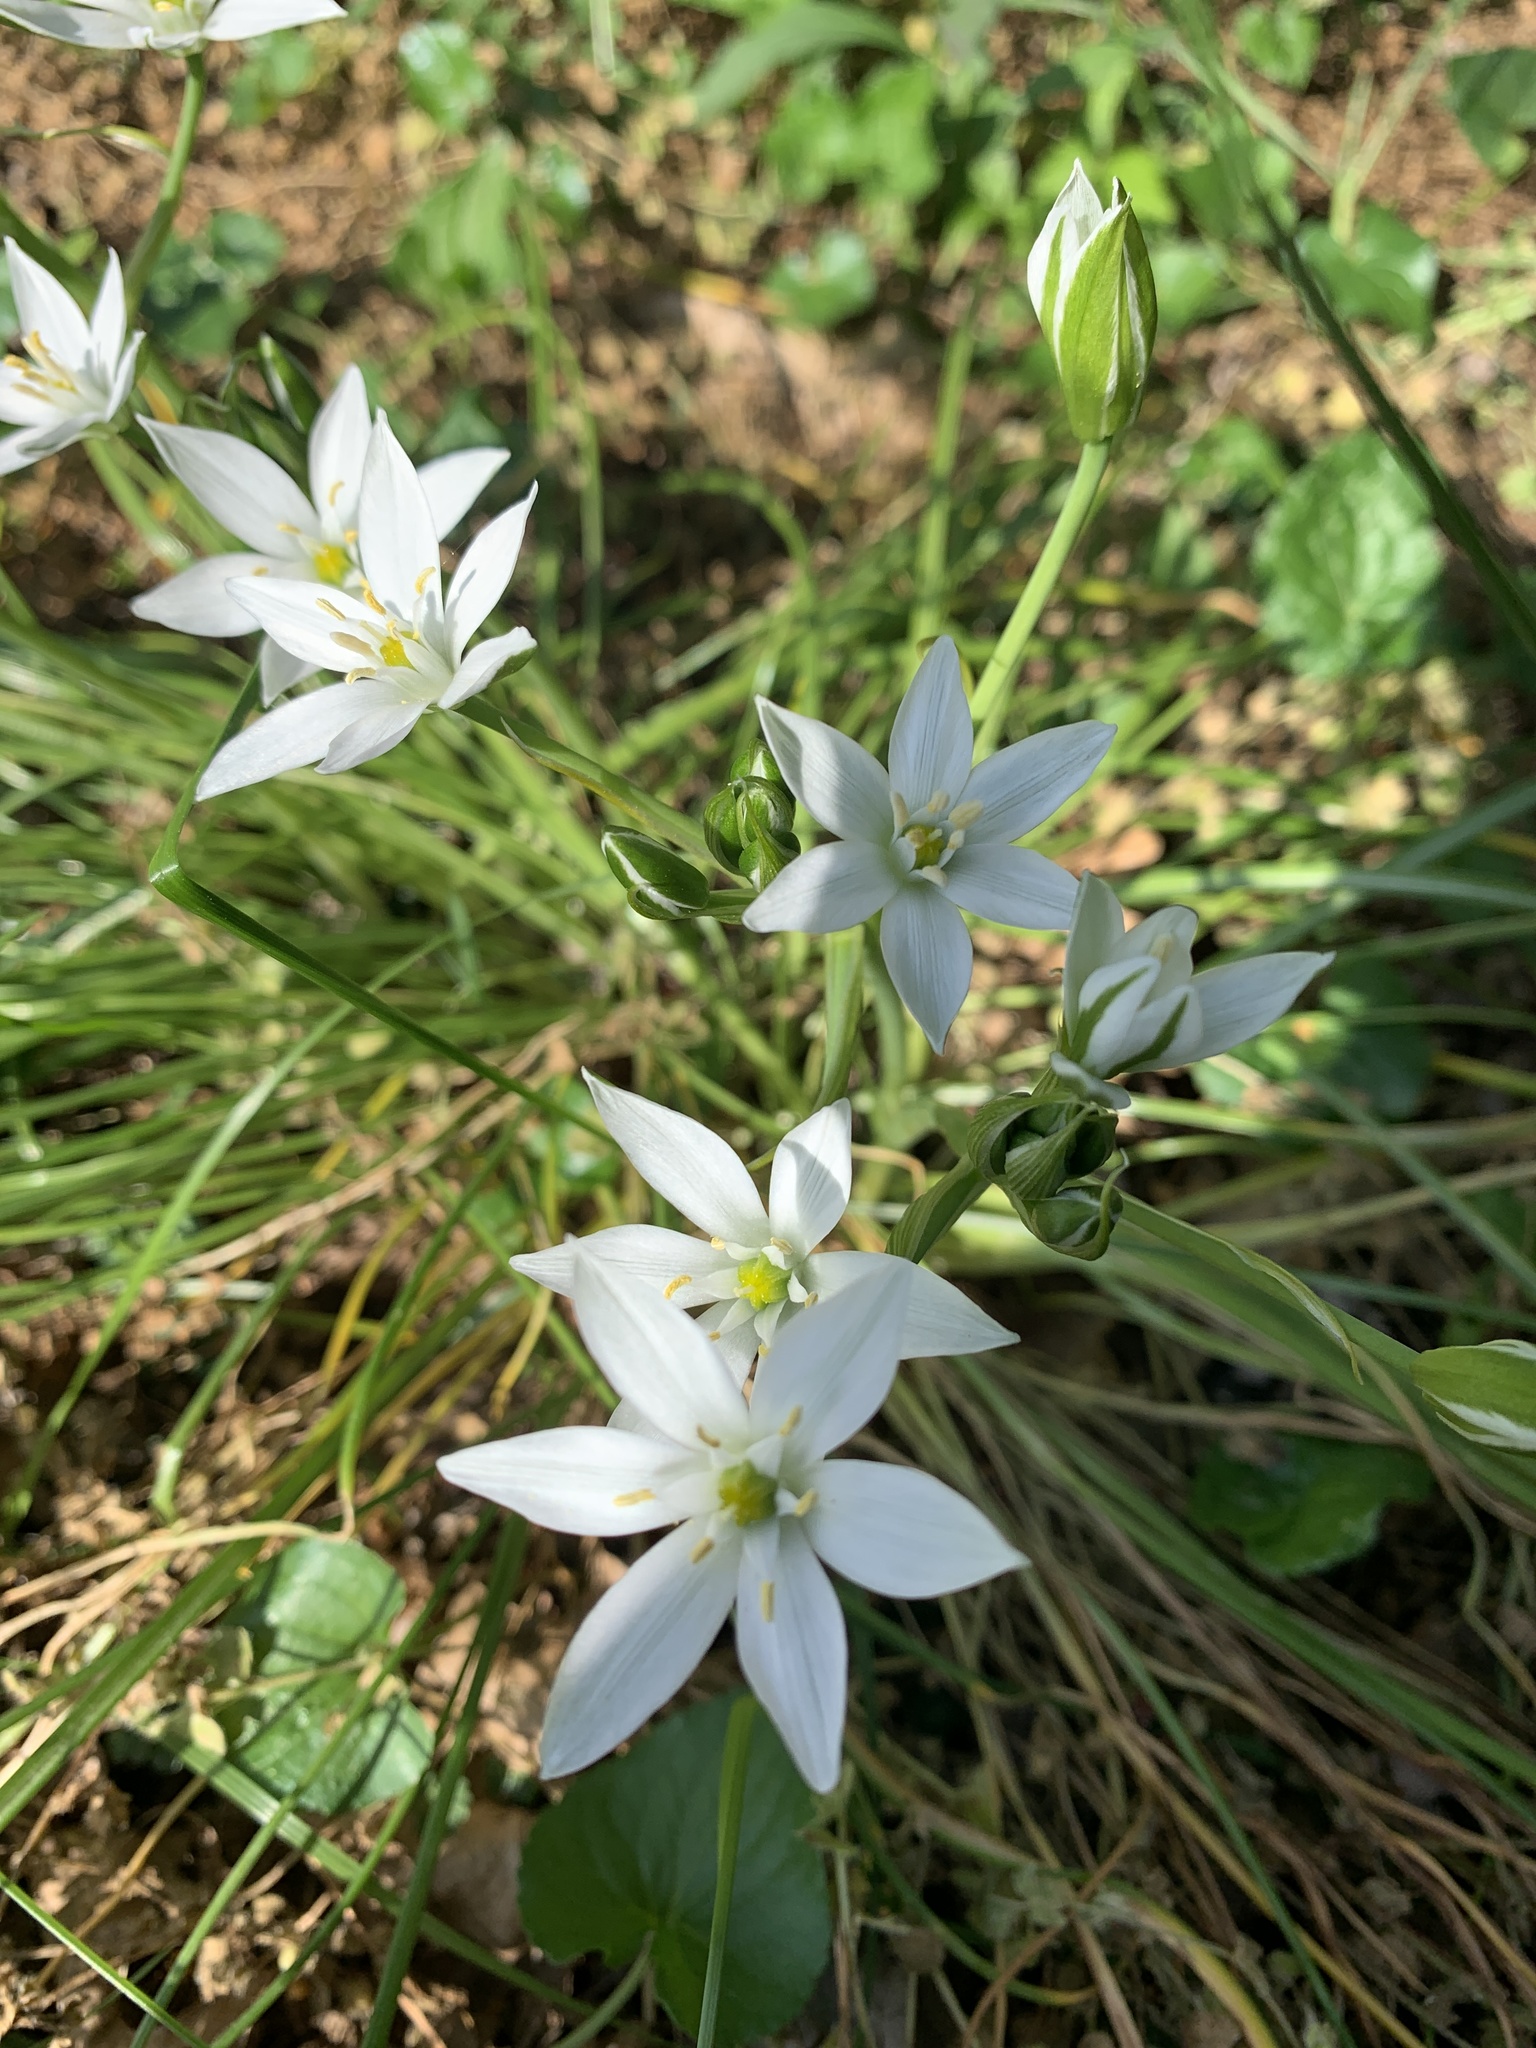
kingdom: Plantae
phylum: Tracheophyta
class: Liliopsida
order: Asparagales
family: Asparagaceae
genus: Ornithogalum
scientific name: Ornithogalum umbellatum
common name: Garden star-of-bethlehem
